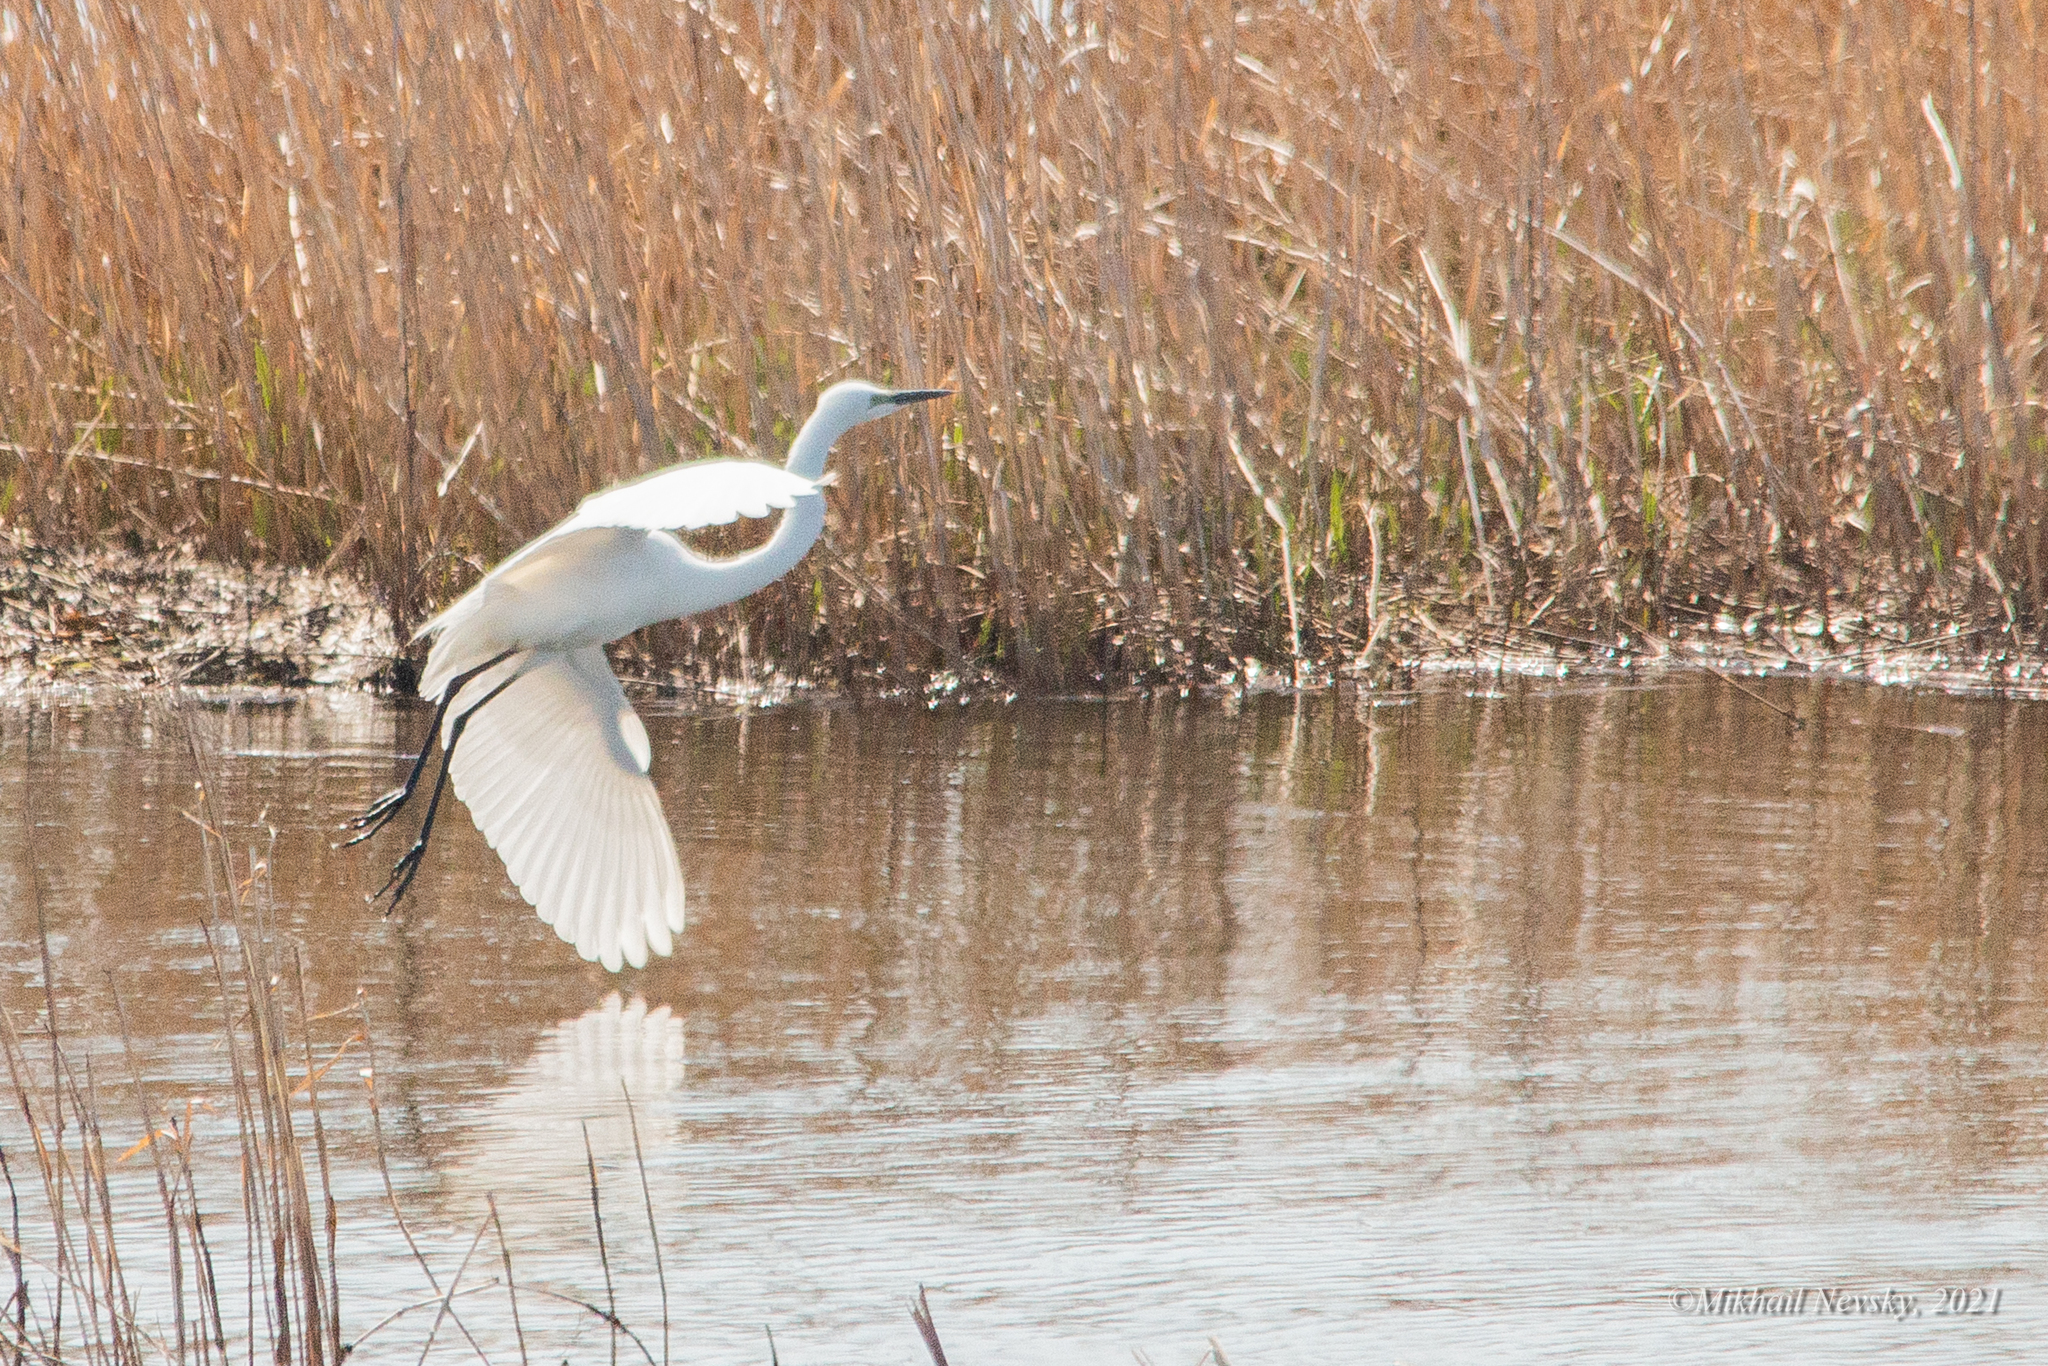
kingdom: Animalia
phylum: Chordata
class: Aves
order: Pelecaniformes
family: Ardeidae
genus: Ardea
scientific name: Ardea modesta
